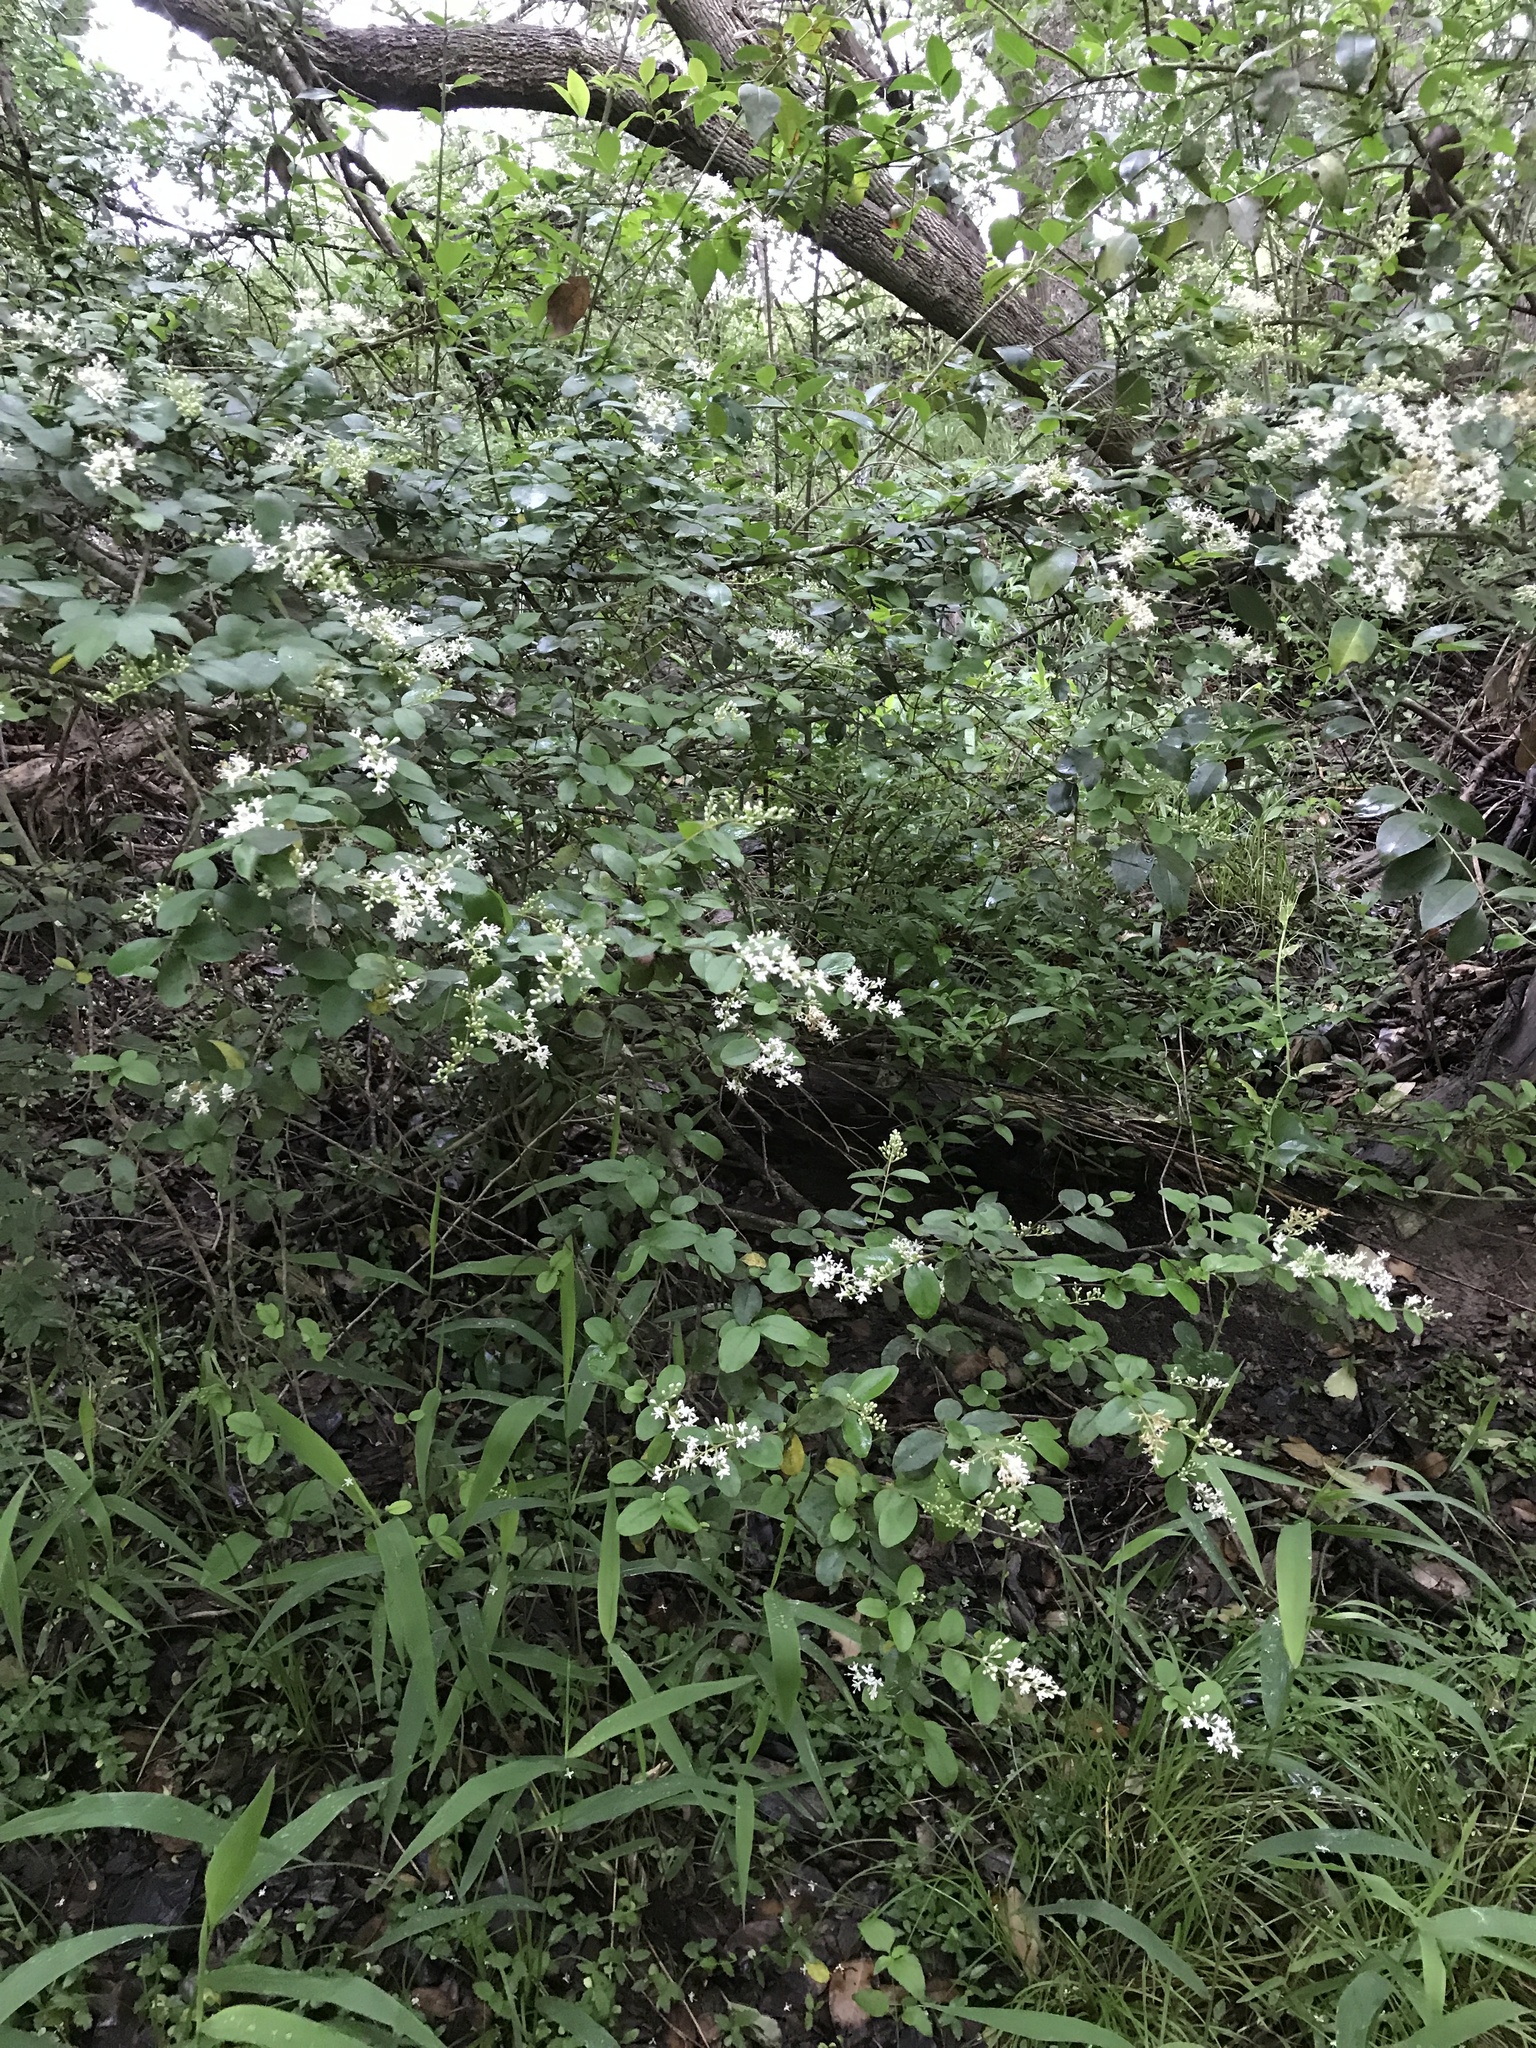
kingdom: Plantae
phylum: Tracheophyta
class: Magnoliopsida
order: Lamiales
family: Oleaceae
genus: Ligustrum
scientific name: Ligustrum sinense
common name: Chinese privet
